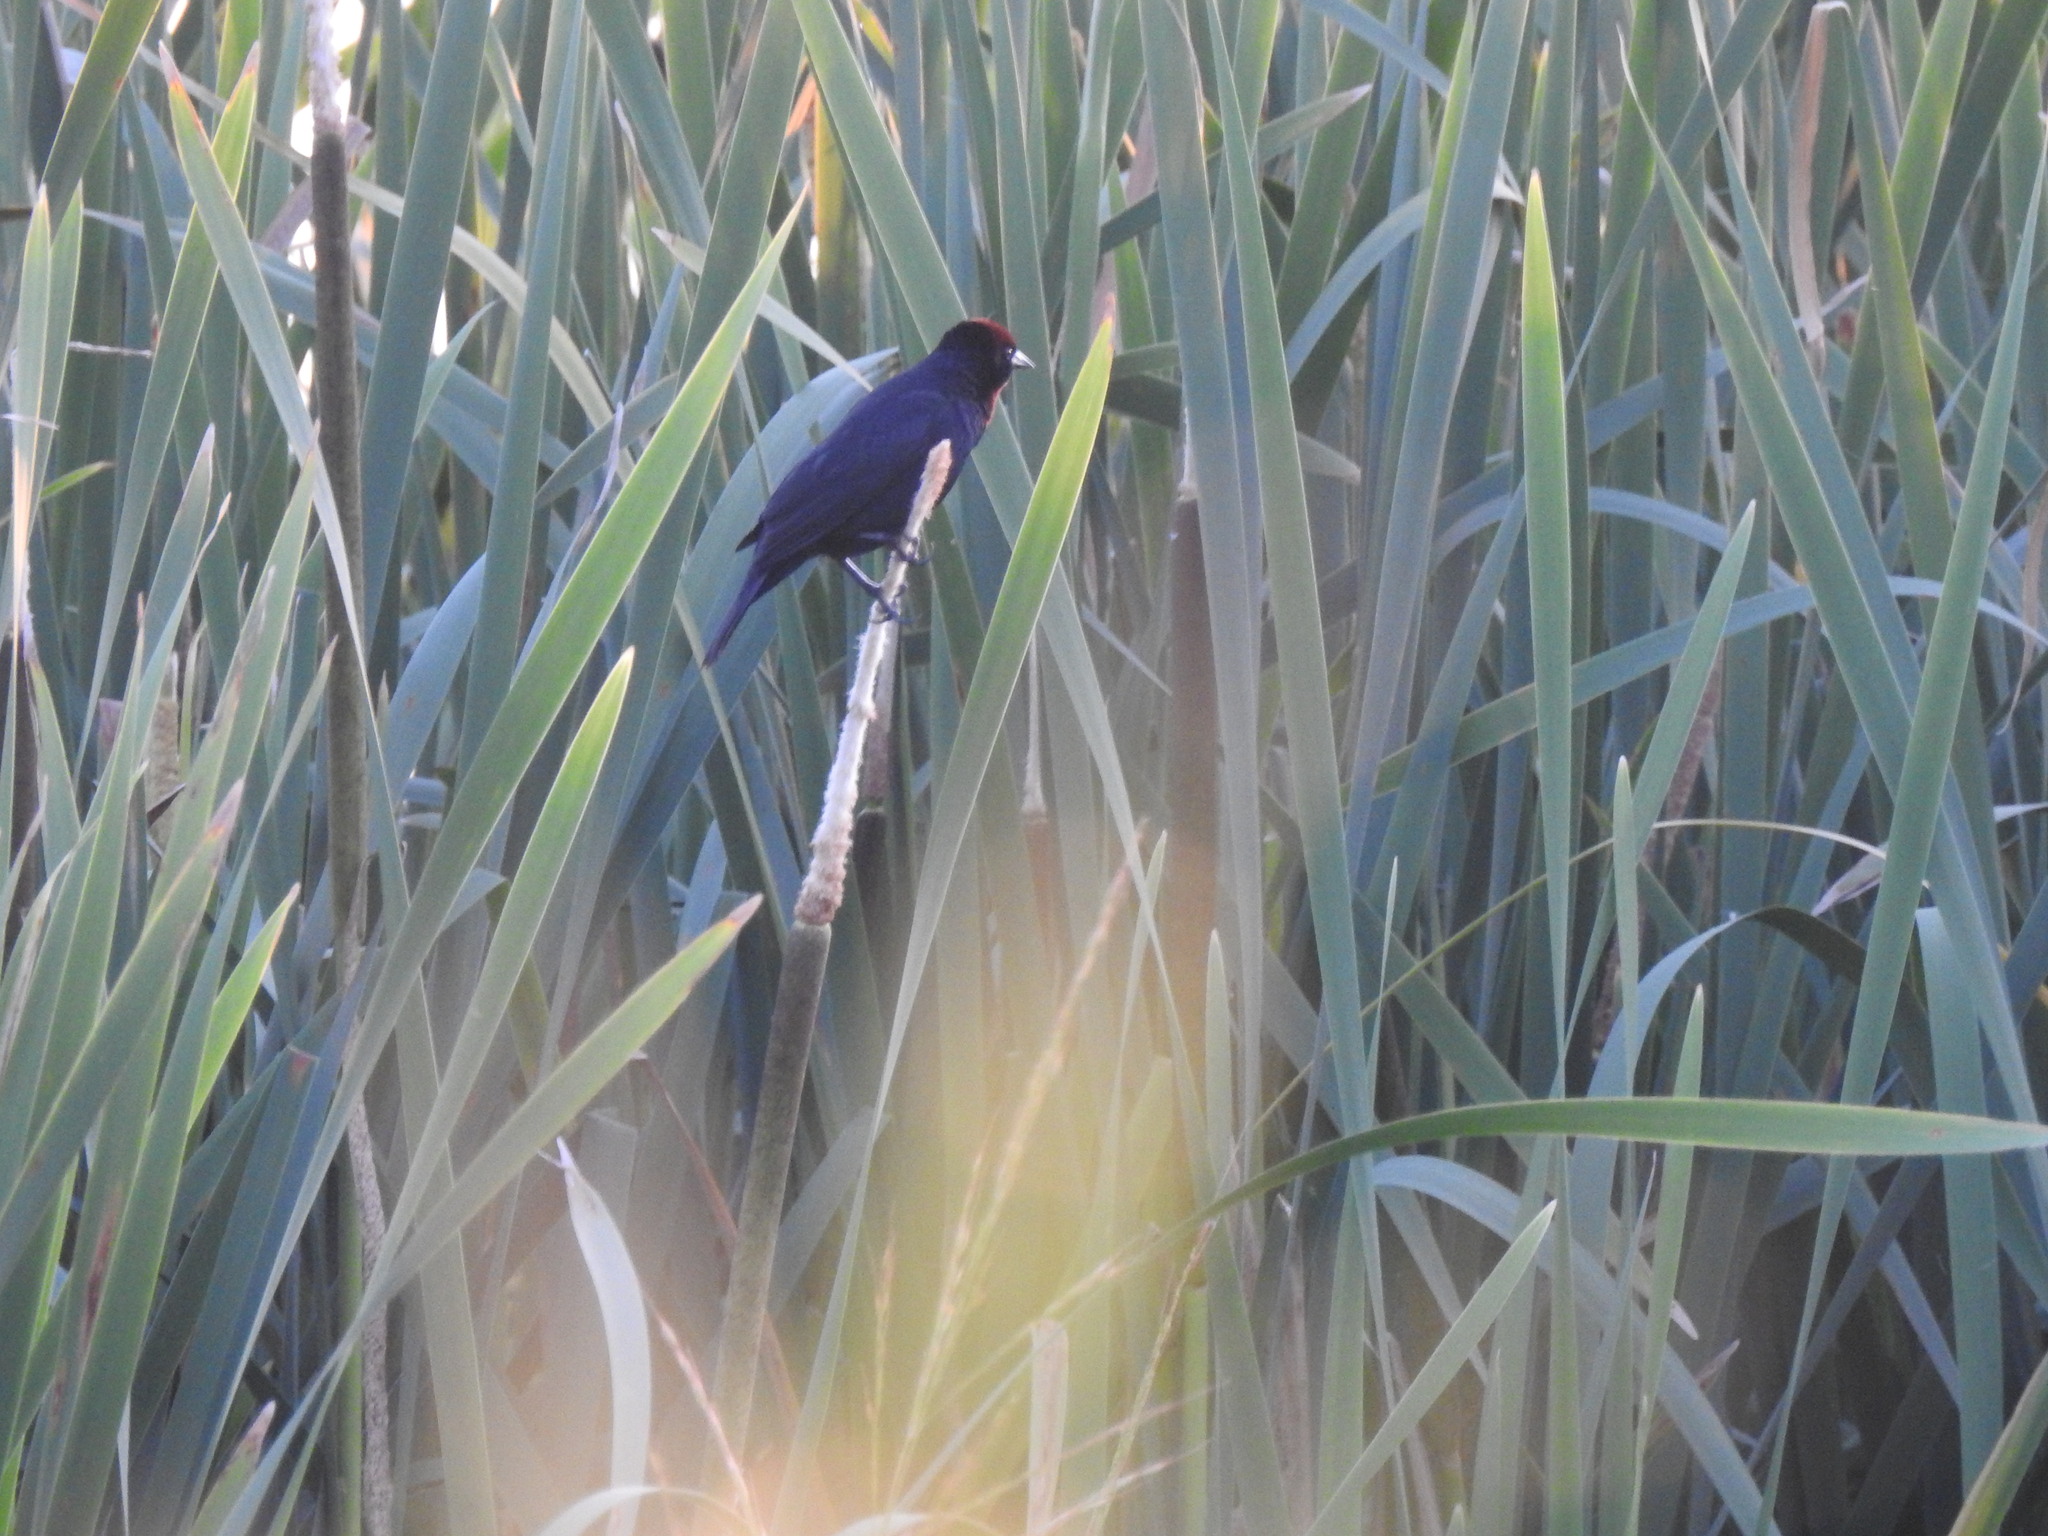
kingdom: Animalia
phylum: Chordata
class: Aves
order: Passeriformes
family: Icteridae
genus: Chrysomus
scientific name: Chrysomus ruficapillus
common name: Chestnut-capped blackbird
